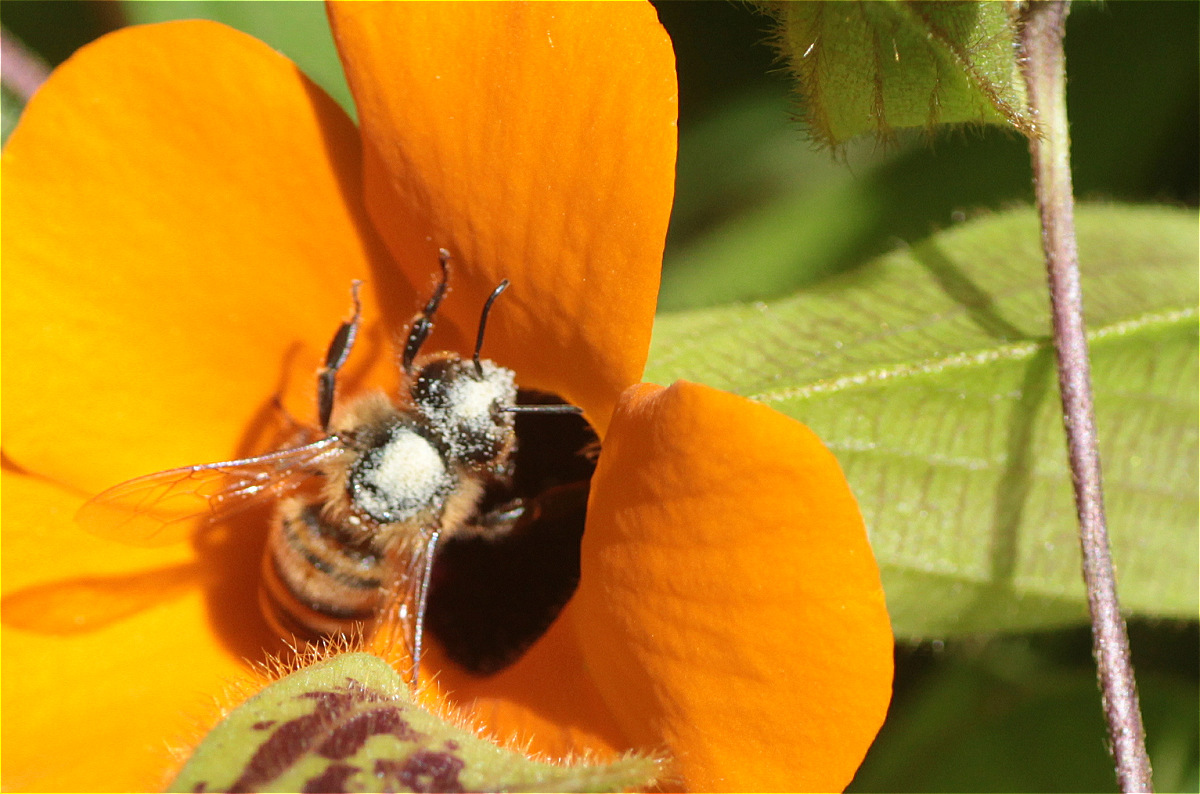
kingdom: Animalia
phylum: Arthropoda
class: Insecta
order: Hymenoptera
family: Apidae
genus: Apis
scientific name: Apis mellifera
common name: Honey bee
